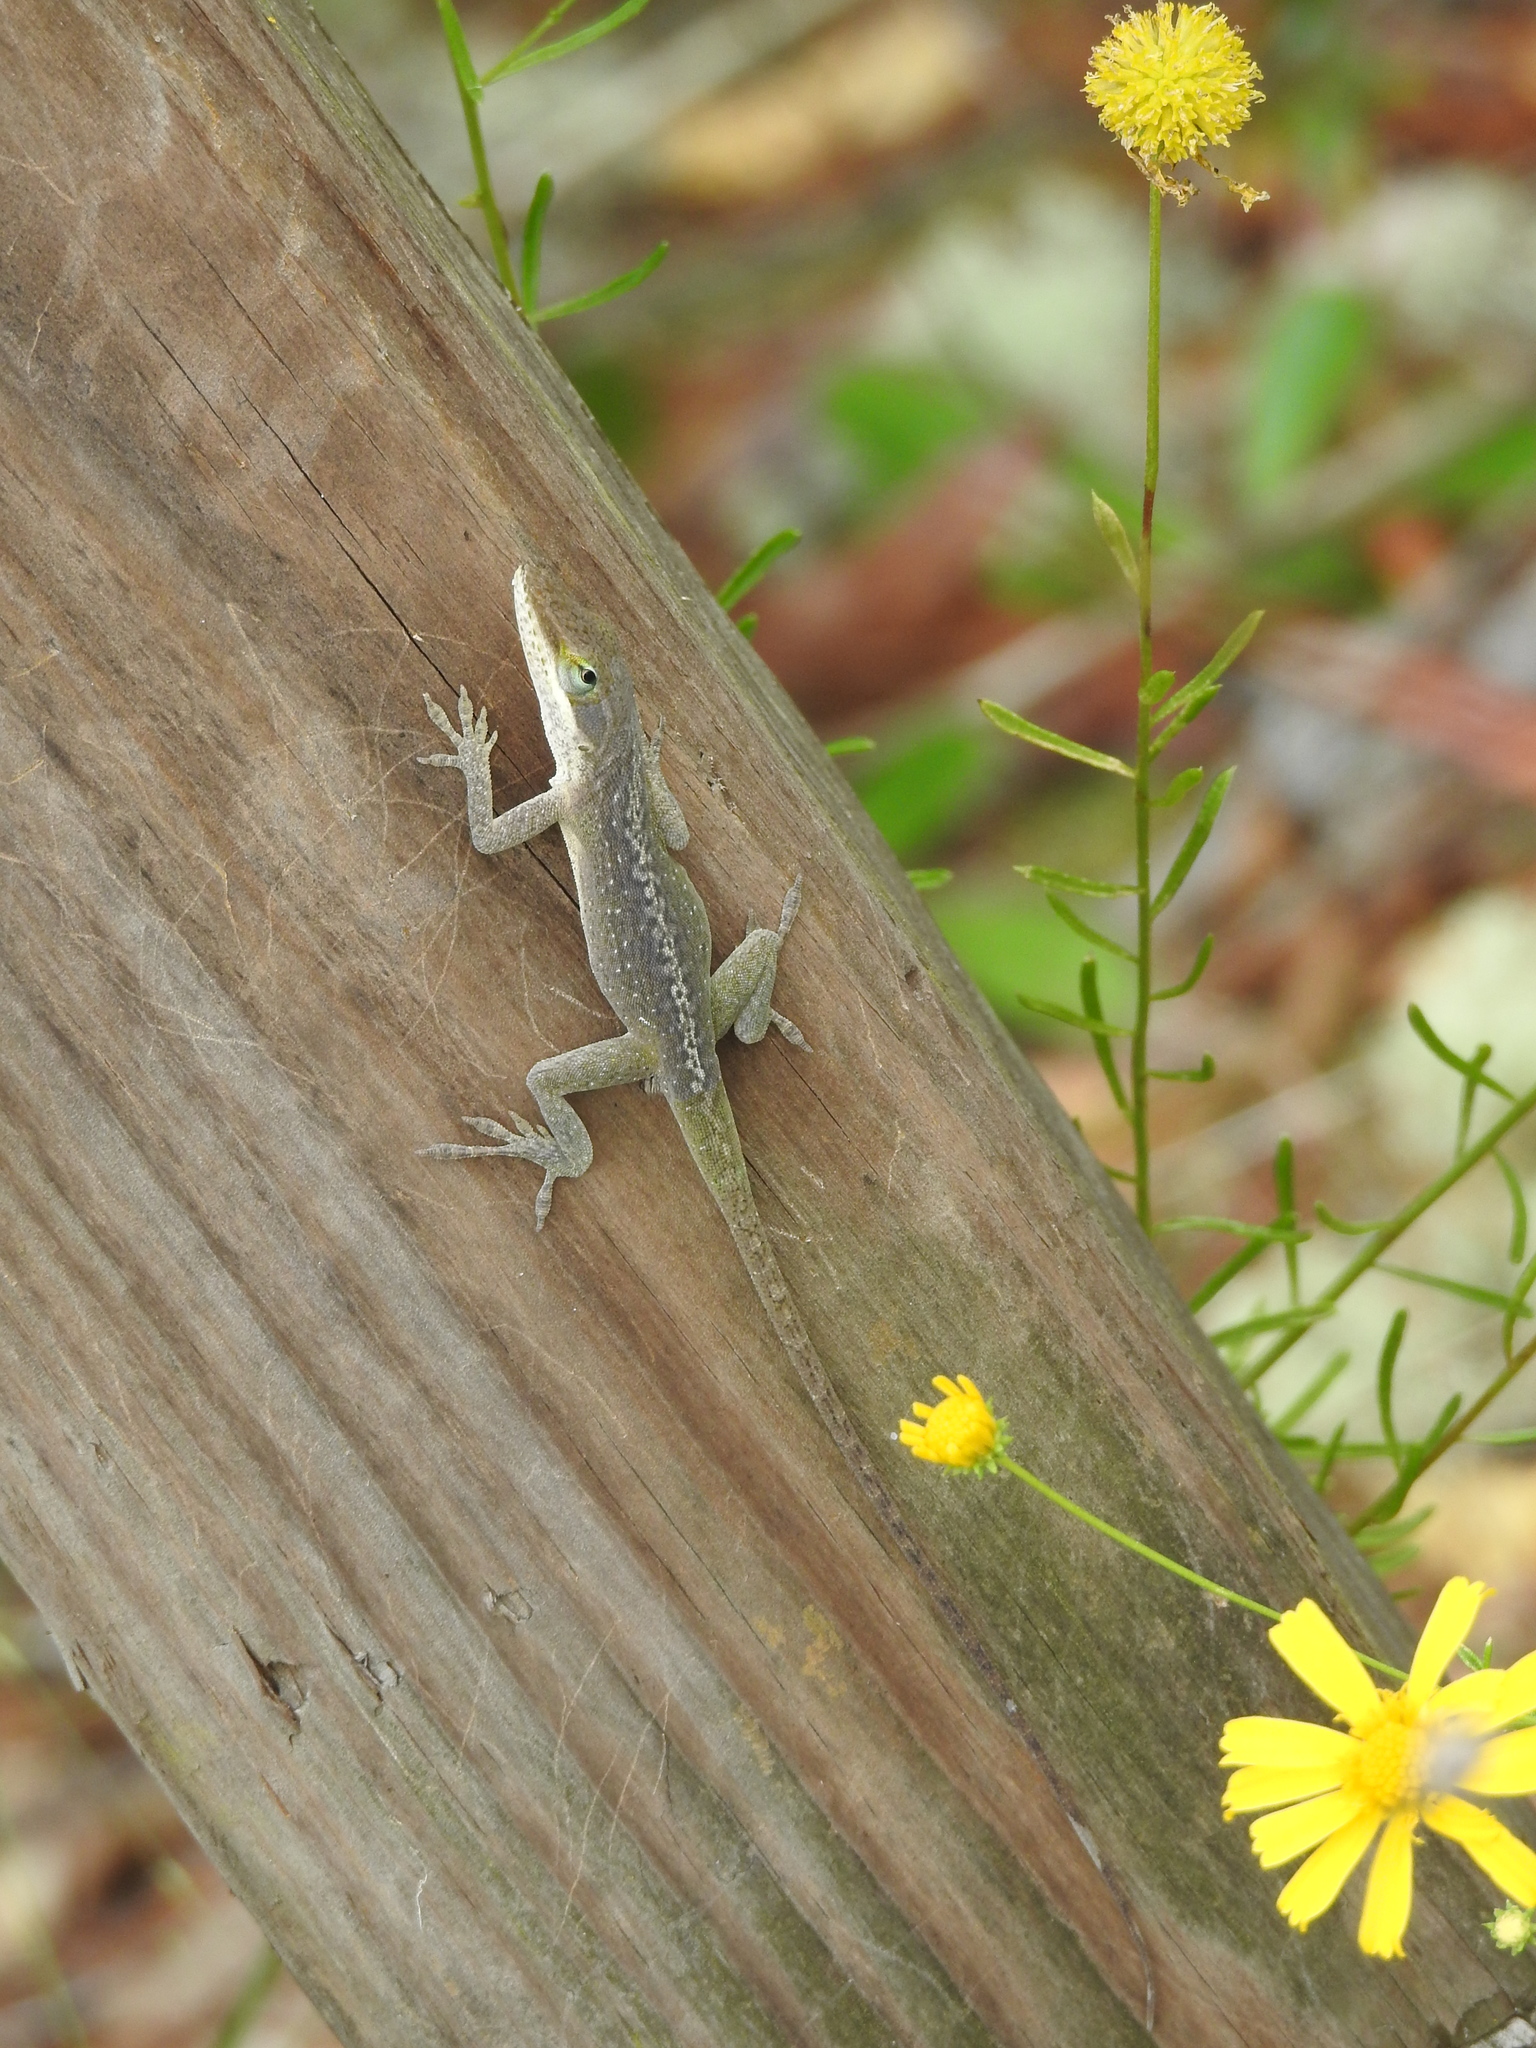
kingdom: Animalia
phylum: Chordata
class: Squamata
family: Dactyloidae
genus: Anolis
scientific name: Anolis carolinensis
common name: Green anole
